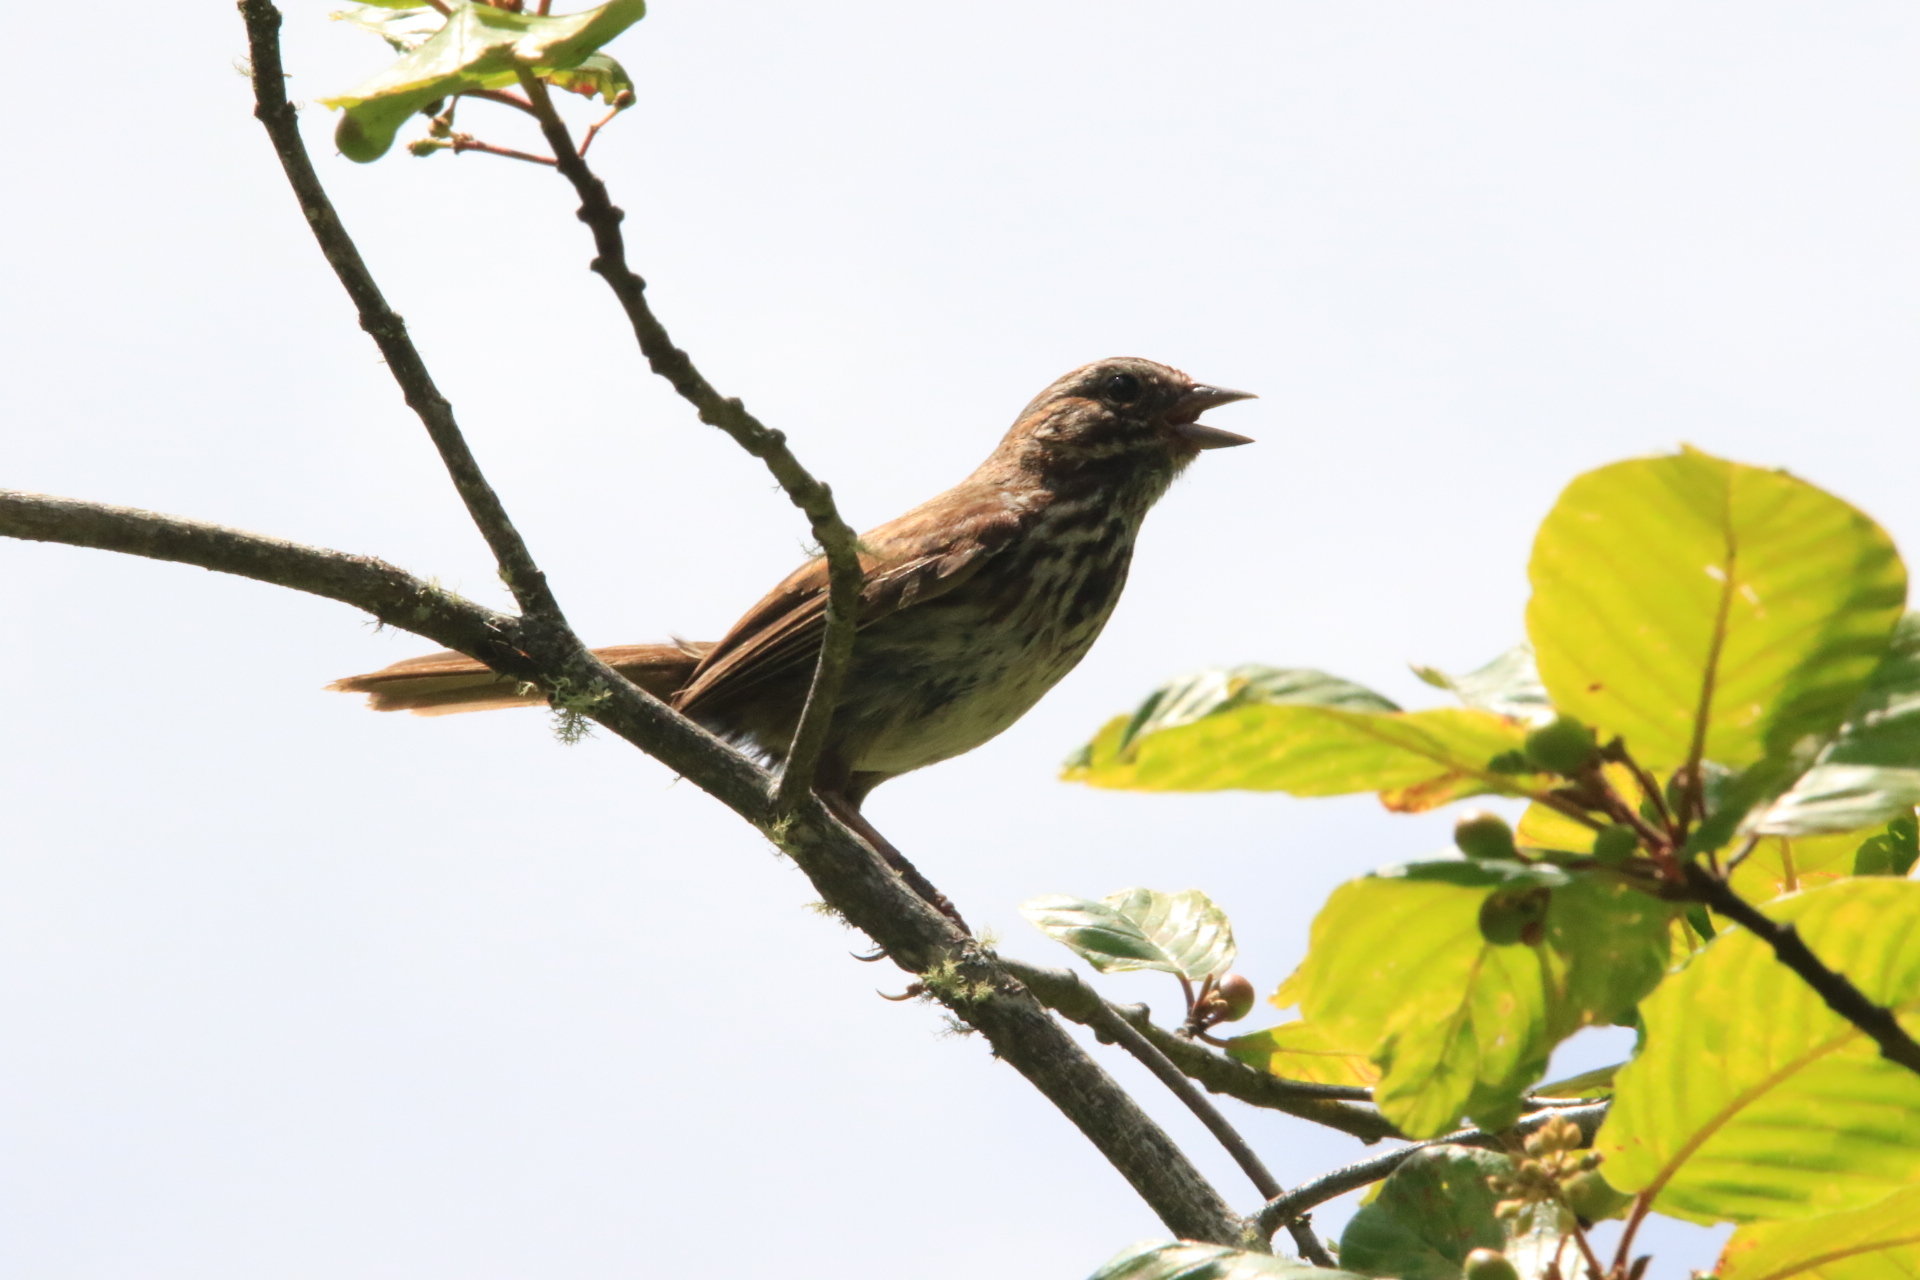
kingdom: Animalia
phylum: Chordata
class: Aves
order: Passeriformes
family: Passerellidae
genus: Melospiza
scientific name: Melospiza melodia
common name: Song sparrow
